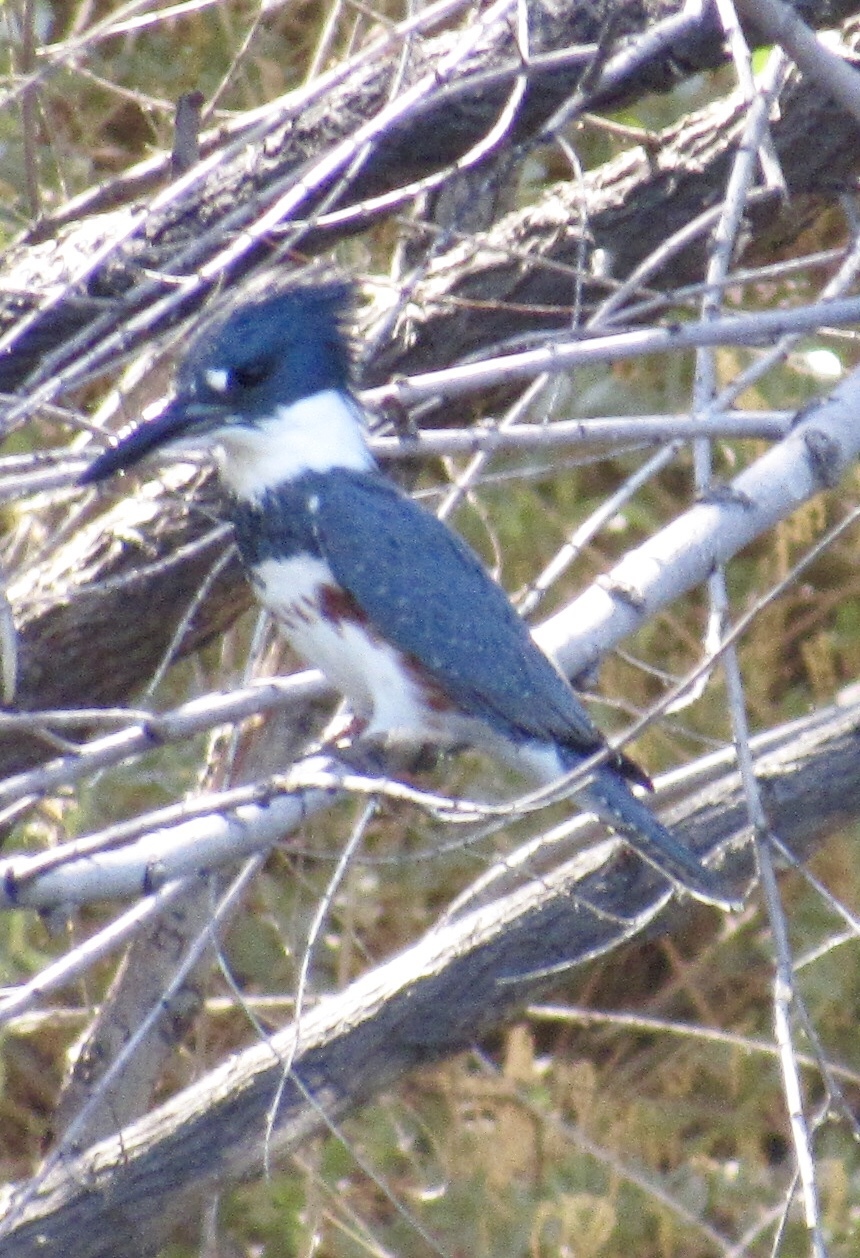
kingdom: Animalia
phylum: Chordata
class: Aves
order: Coraciiformes
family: Alcedinidae
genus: Megaceryle
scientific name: Megaceryle alcyon
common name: Belted kingfisher
